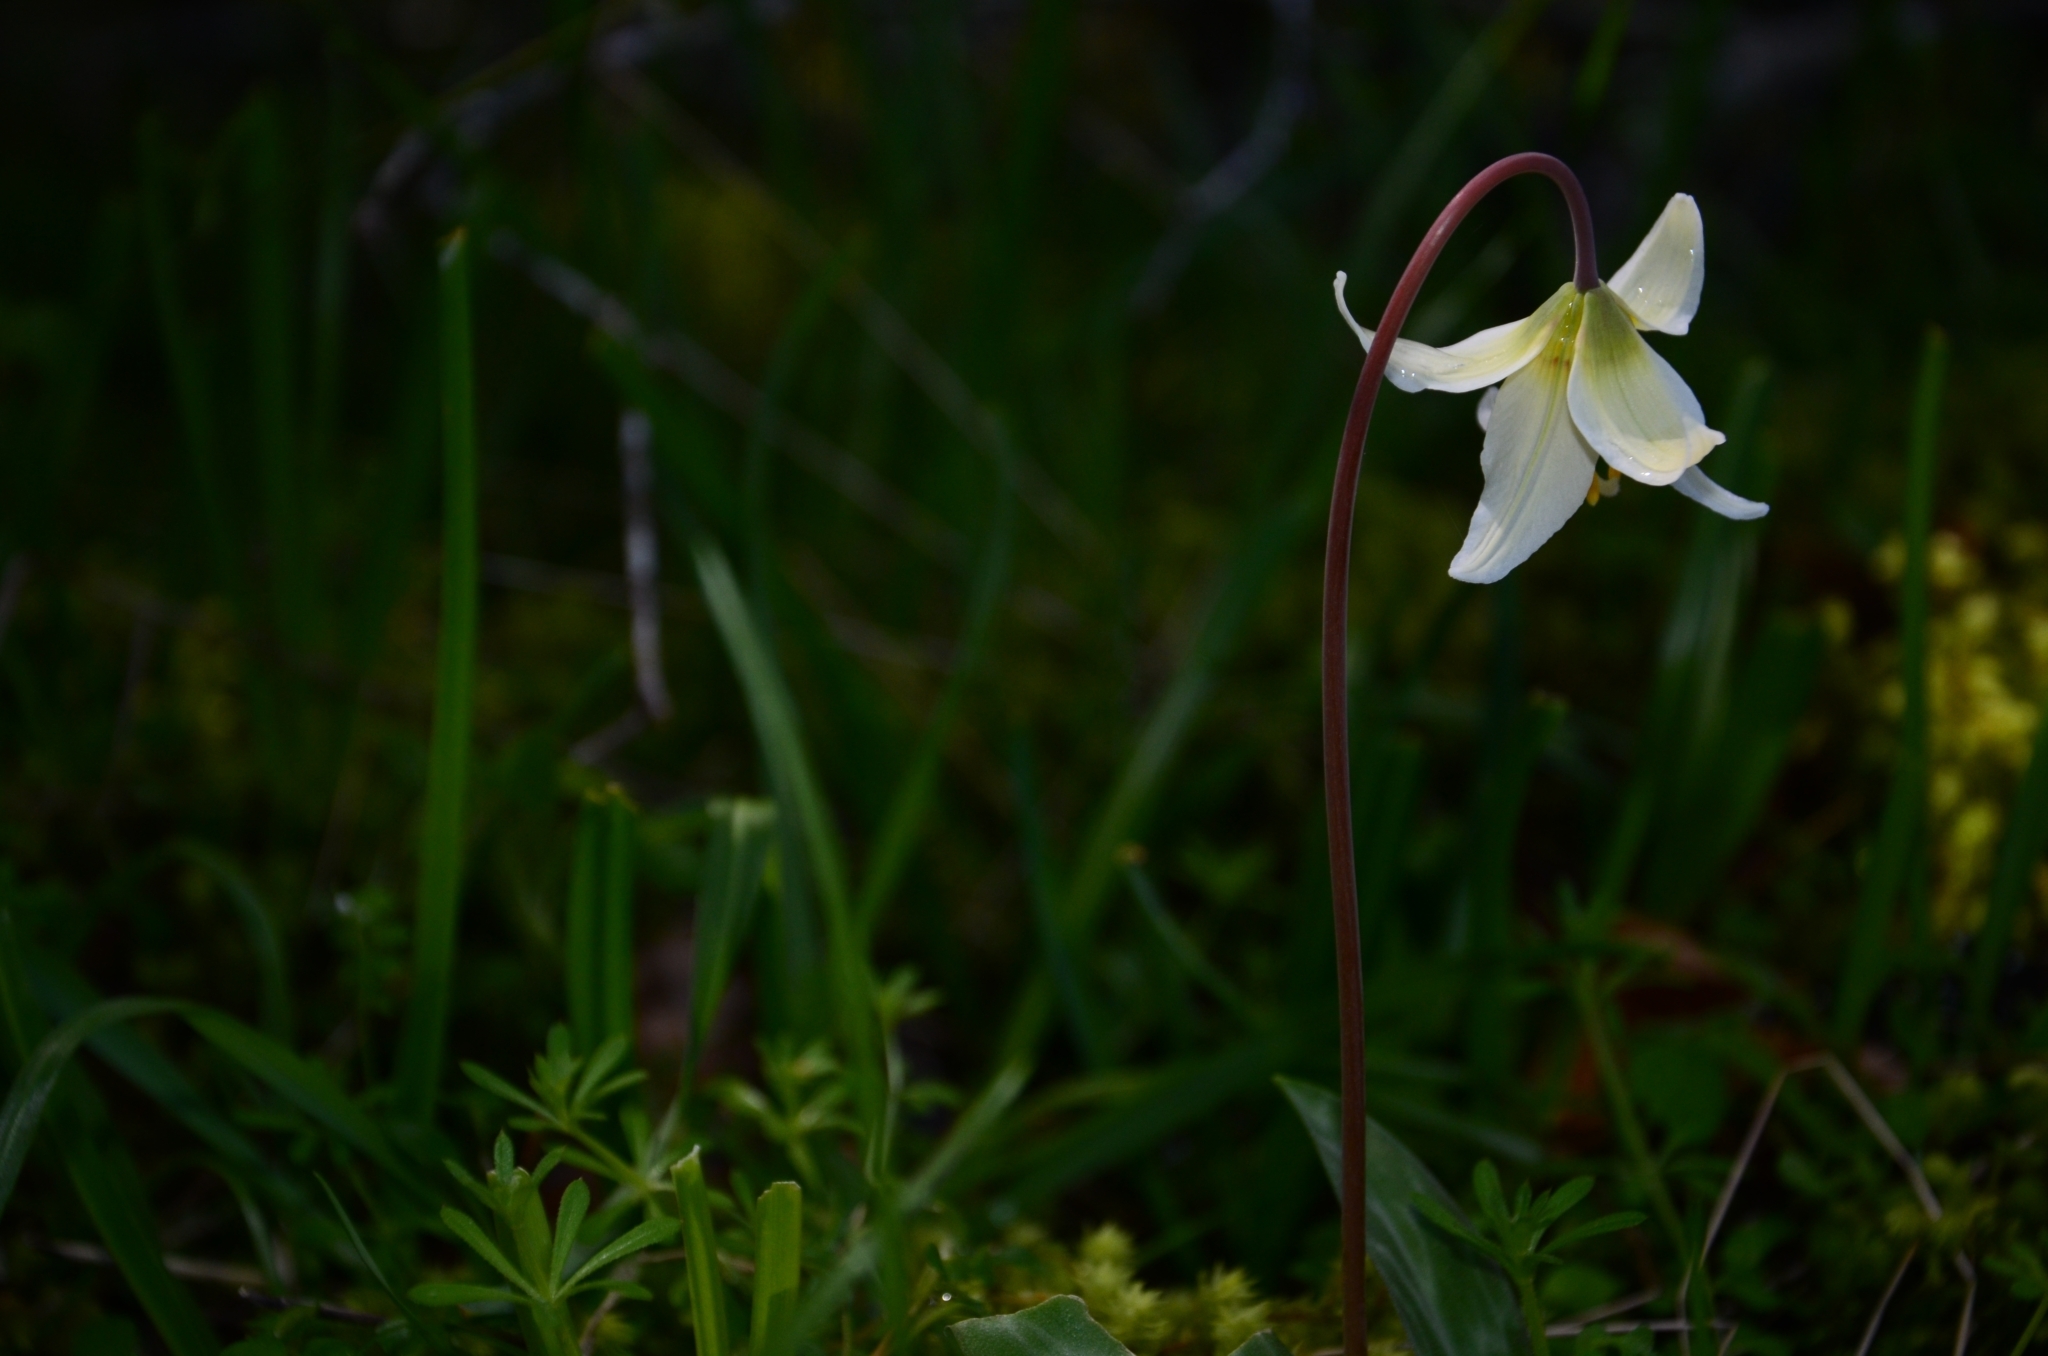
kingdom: Plantae
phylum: Tracheophyta
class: Liliopsida
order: Liliales
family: Liliaceae
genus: Erythronium
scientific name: Erythronium oregonum
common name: Giant adder's-tongue
